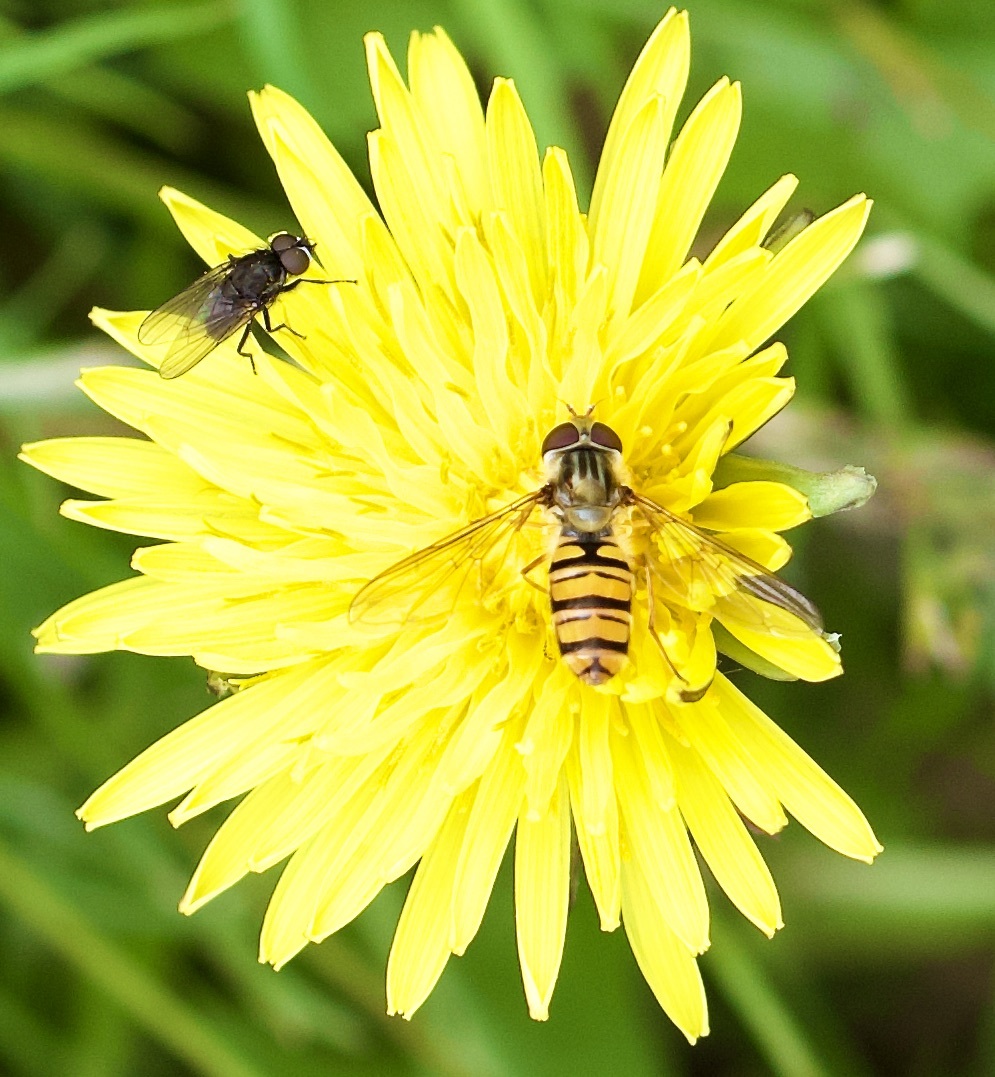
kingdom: Animalia
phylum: Arthropoda
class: Insecta
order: Diptera
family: Syrphidae
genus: Episyrphus
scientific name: Episyrphus balteatus
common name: Marmalade hoverfly
